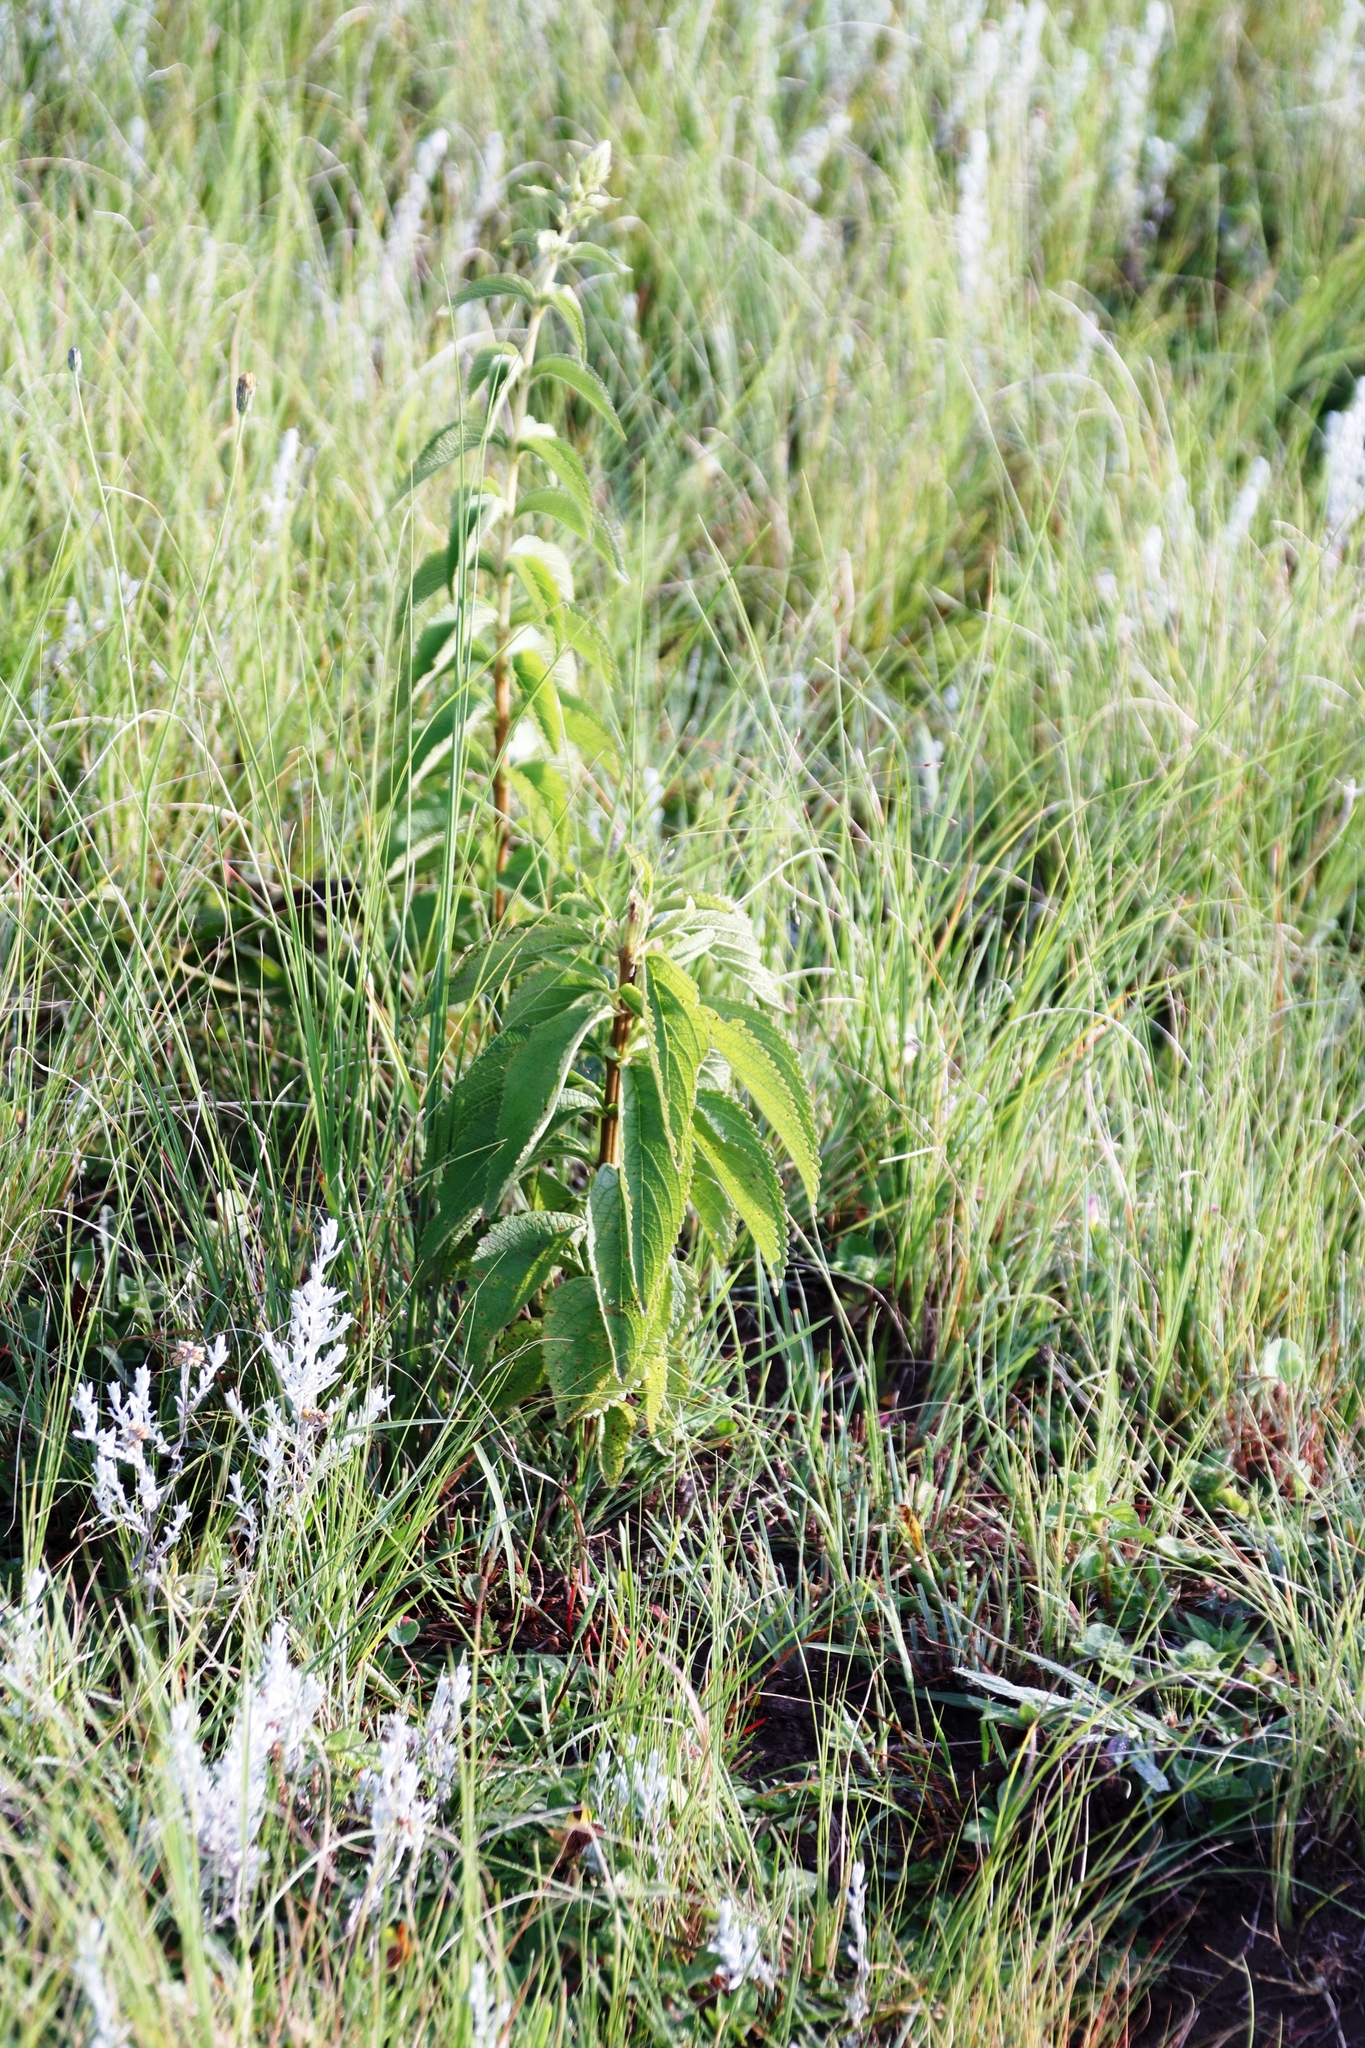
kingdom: Plantae
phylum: Tracheophyta
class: Magnoliopsida
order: Lamiales
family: Lamiaceae
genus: Coleus
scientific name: Coleus calycinus
